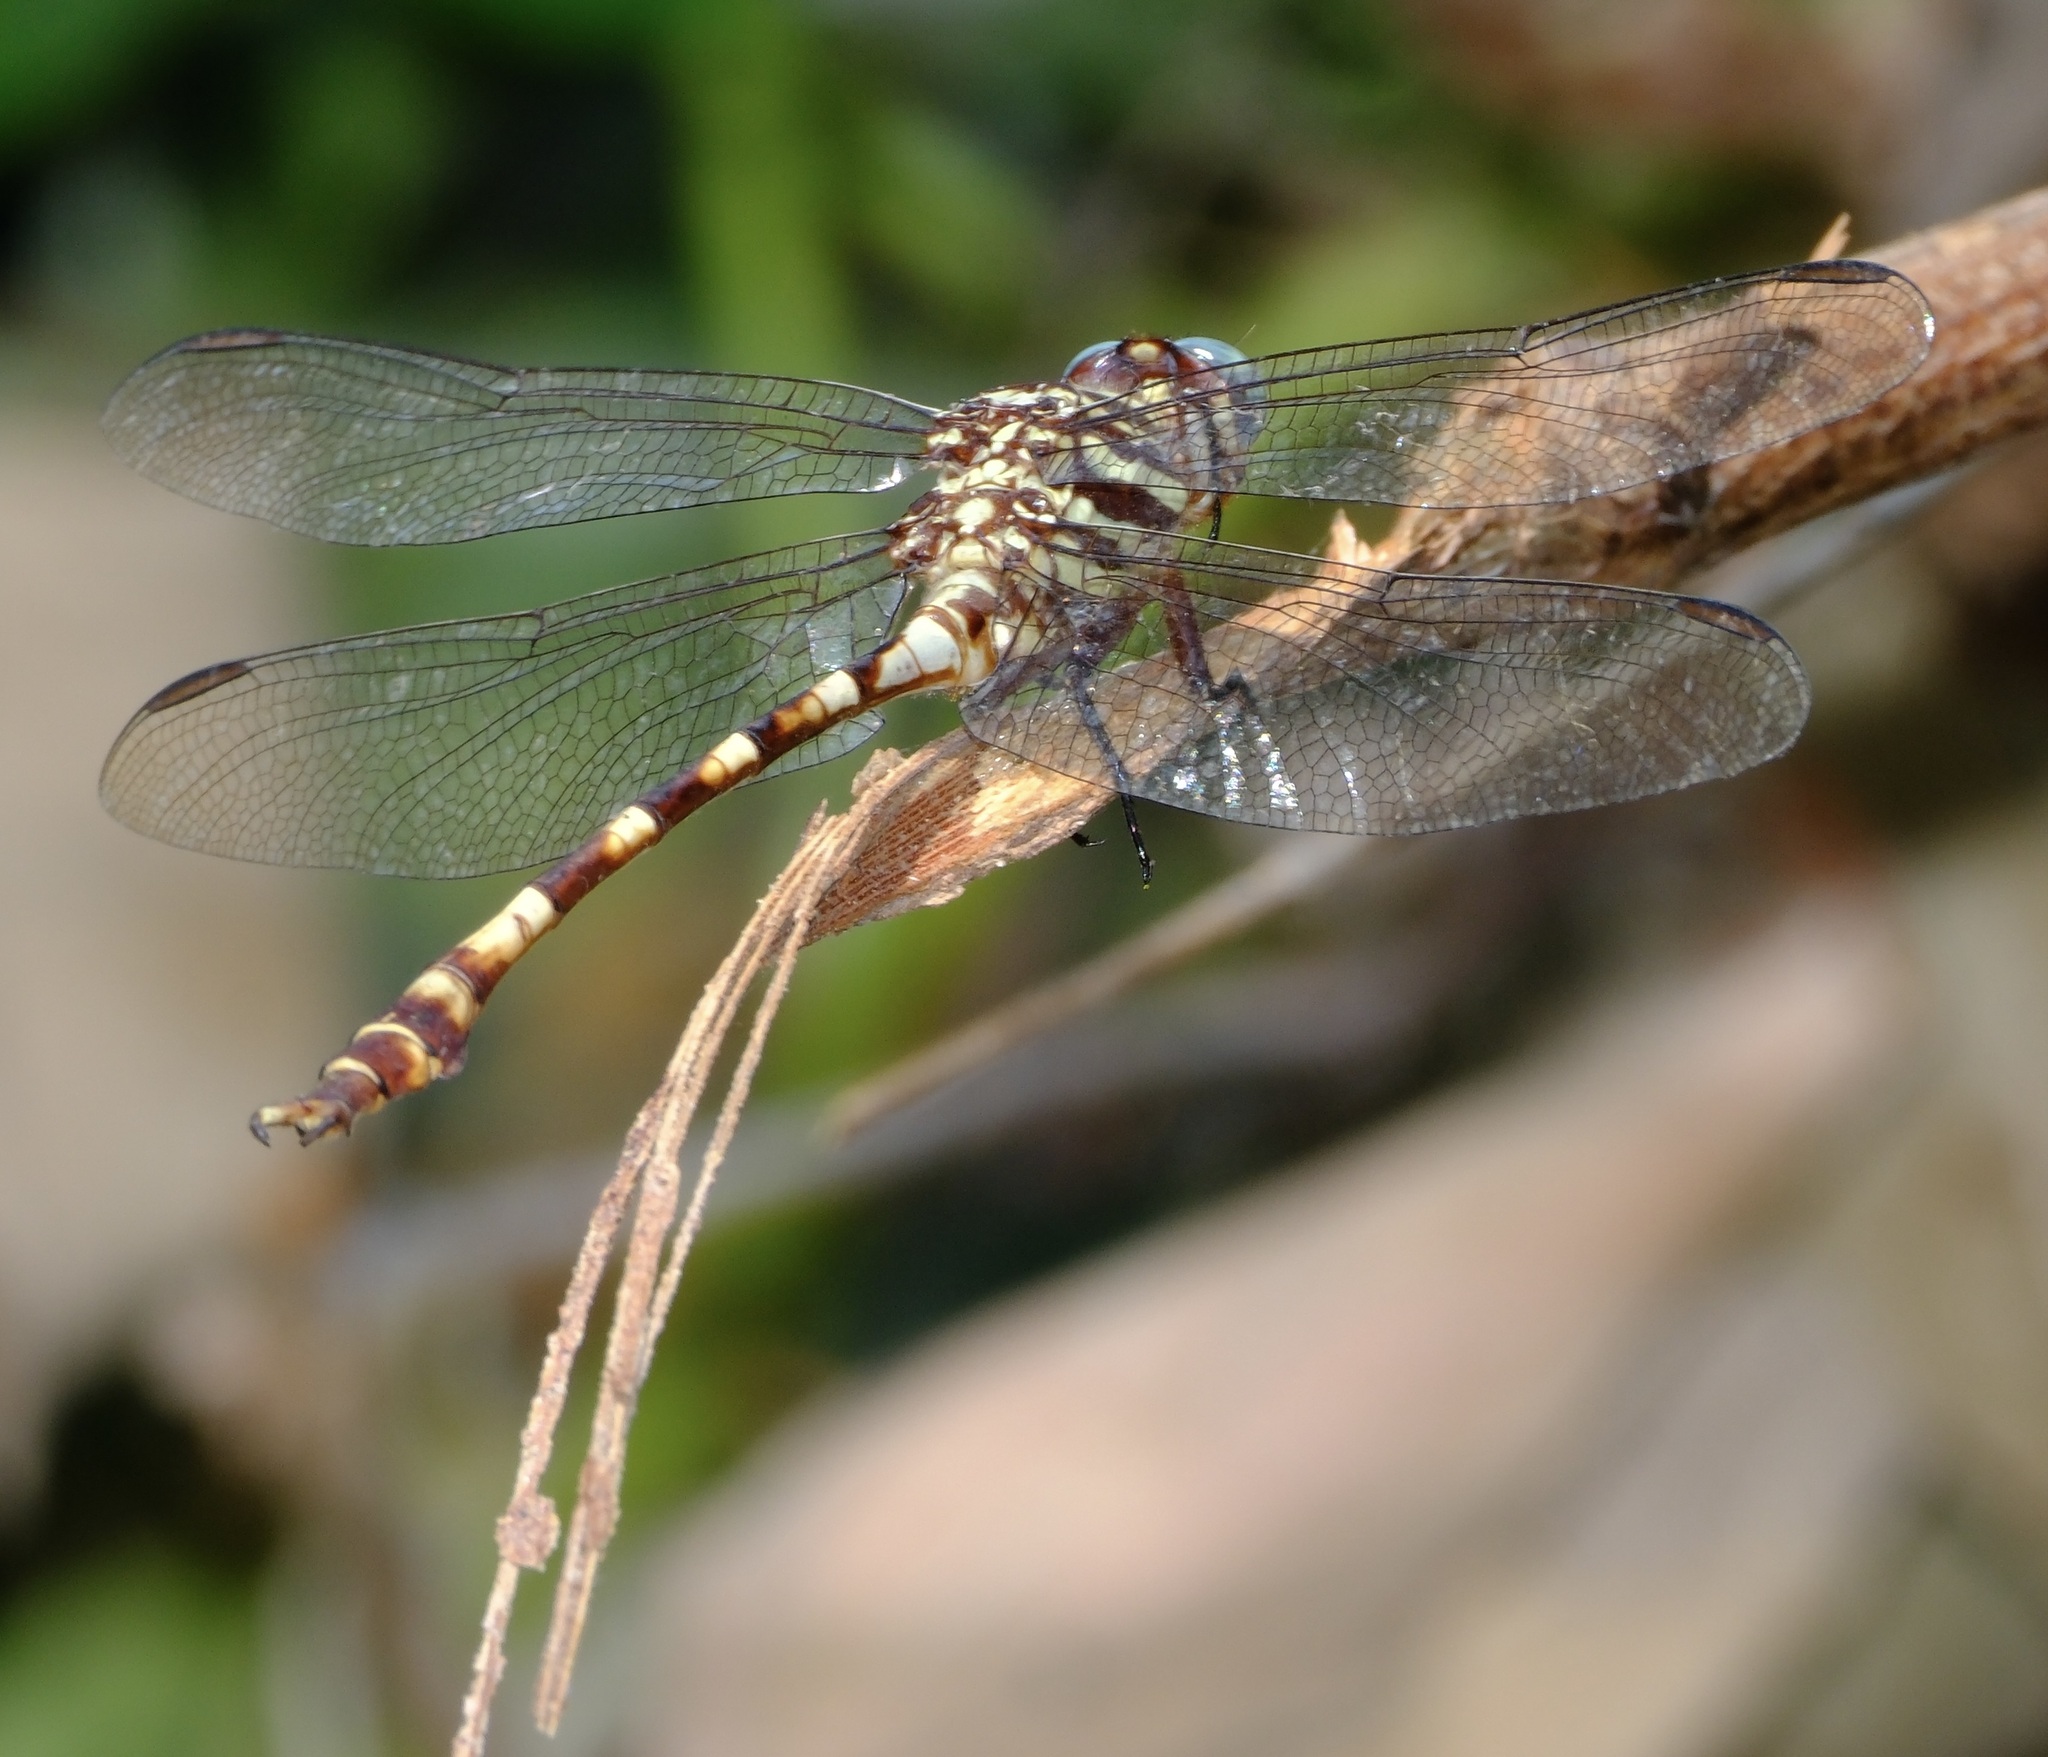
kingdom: Animalia
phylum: Arthropoda
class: Insecta
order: Odonata
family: Gomphidae
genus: Aphylla
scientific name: Aphylla angustifolia
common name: Broad-striped forceptail
